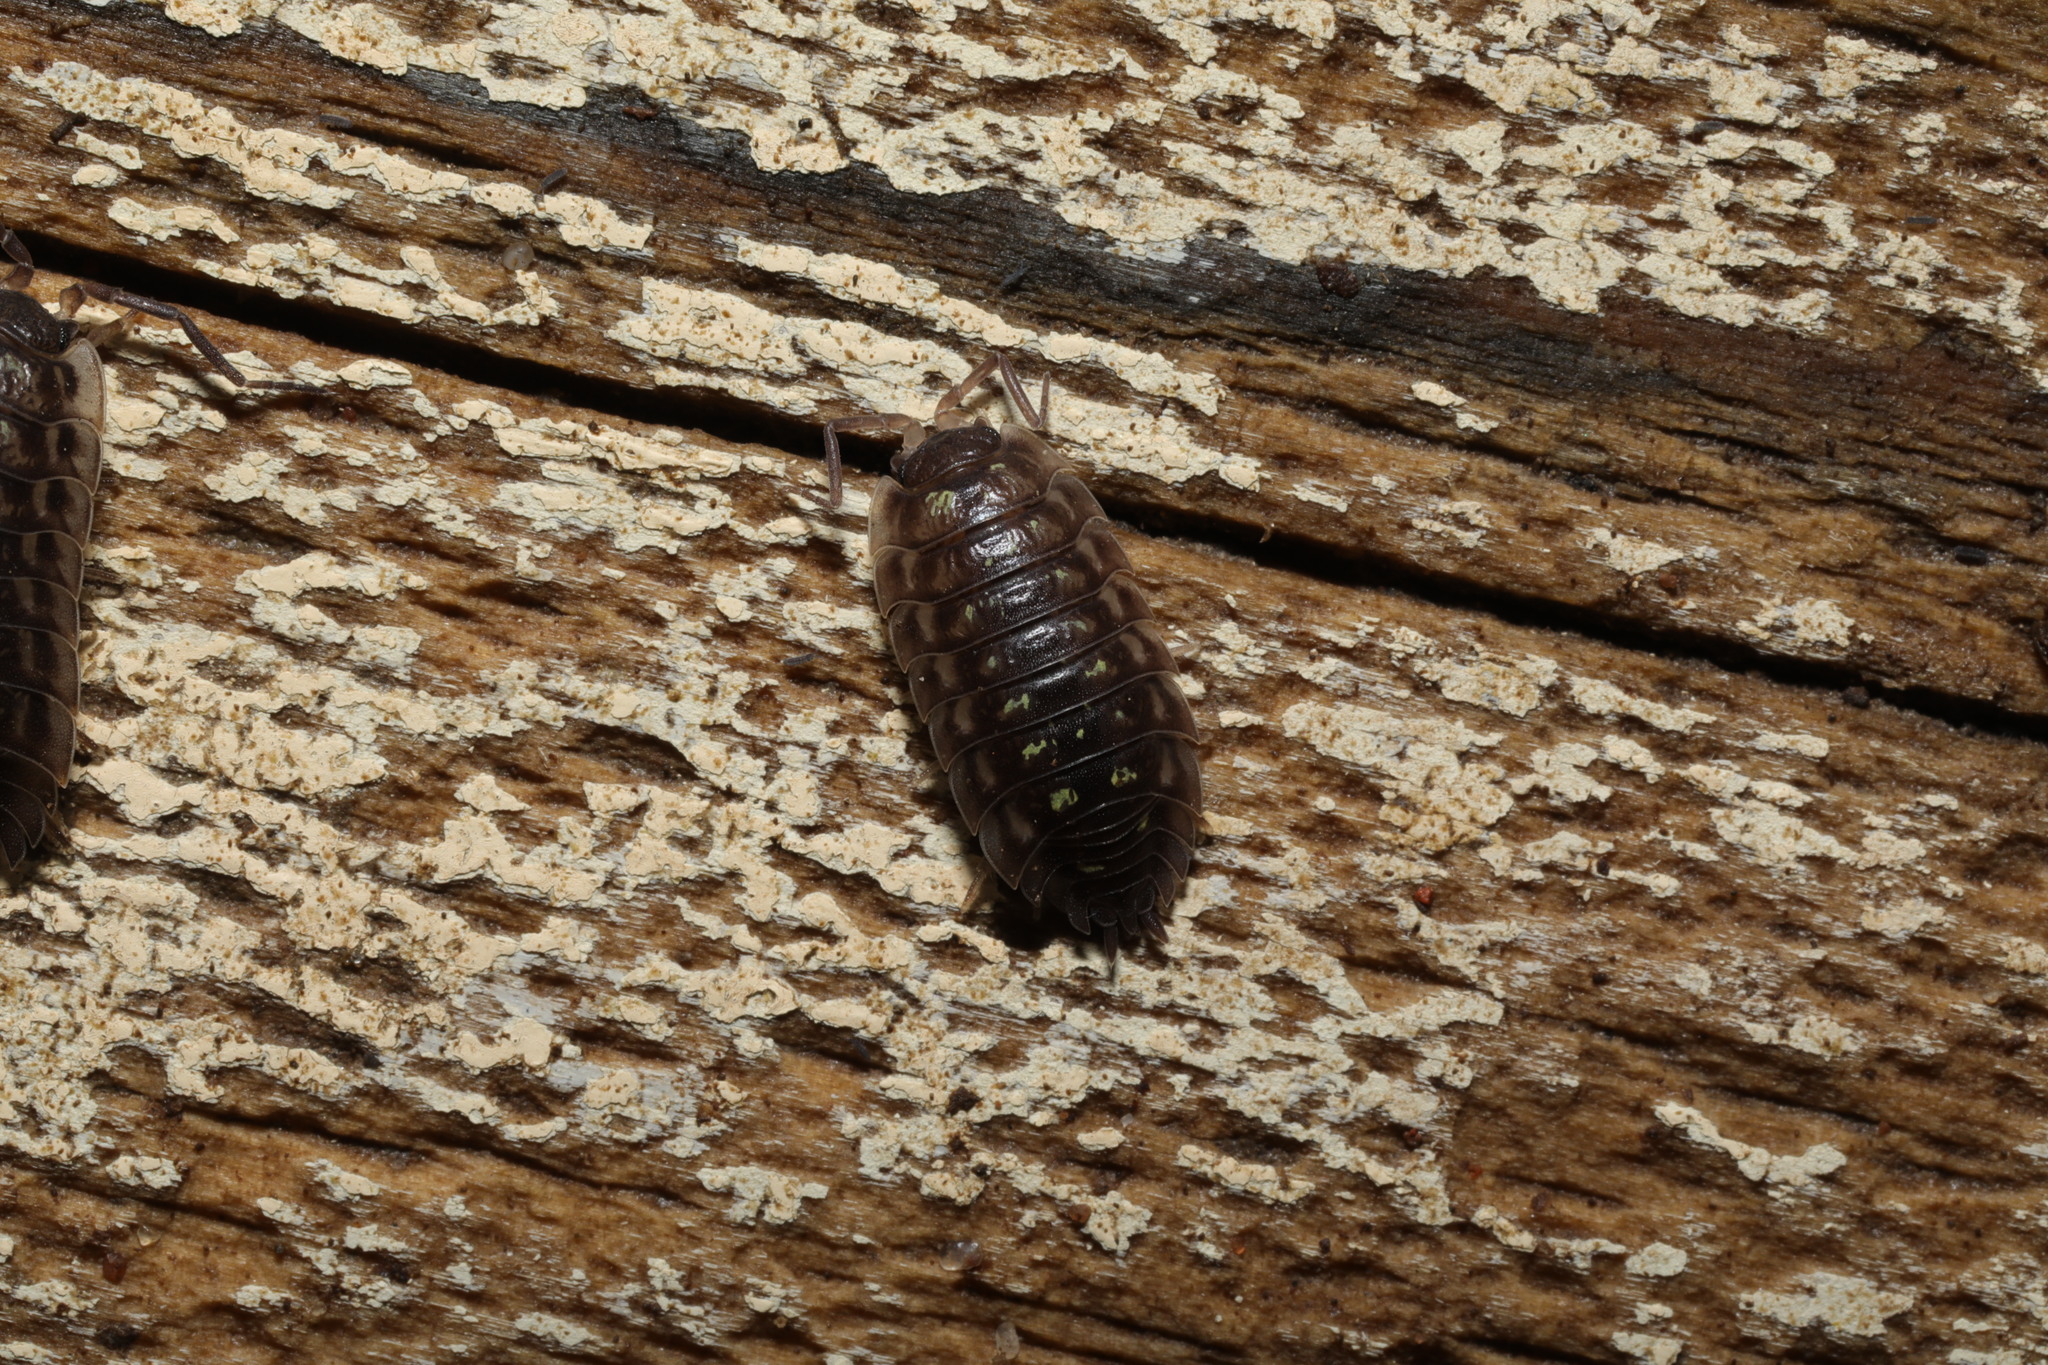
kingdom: Animalia
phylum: Arthropoda
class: Malacostraca
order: Isopoda
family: Oniscidae
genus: Oniscus
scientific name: Oniscus asellus
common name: Common shiny woodlouse
